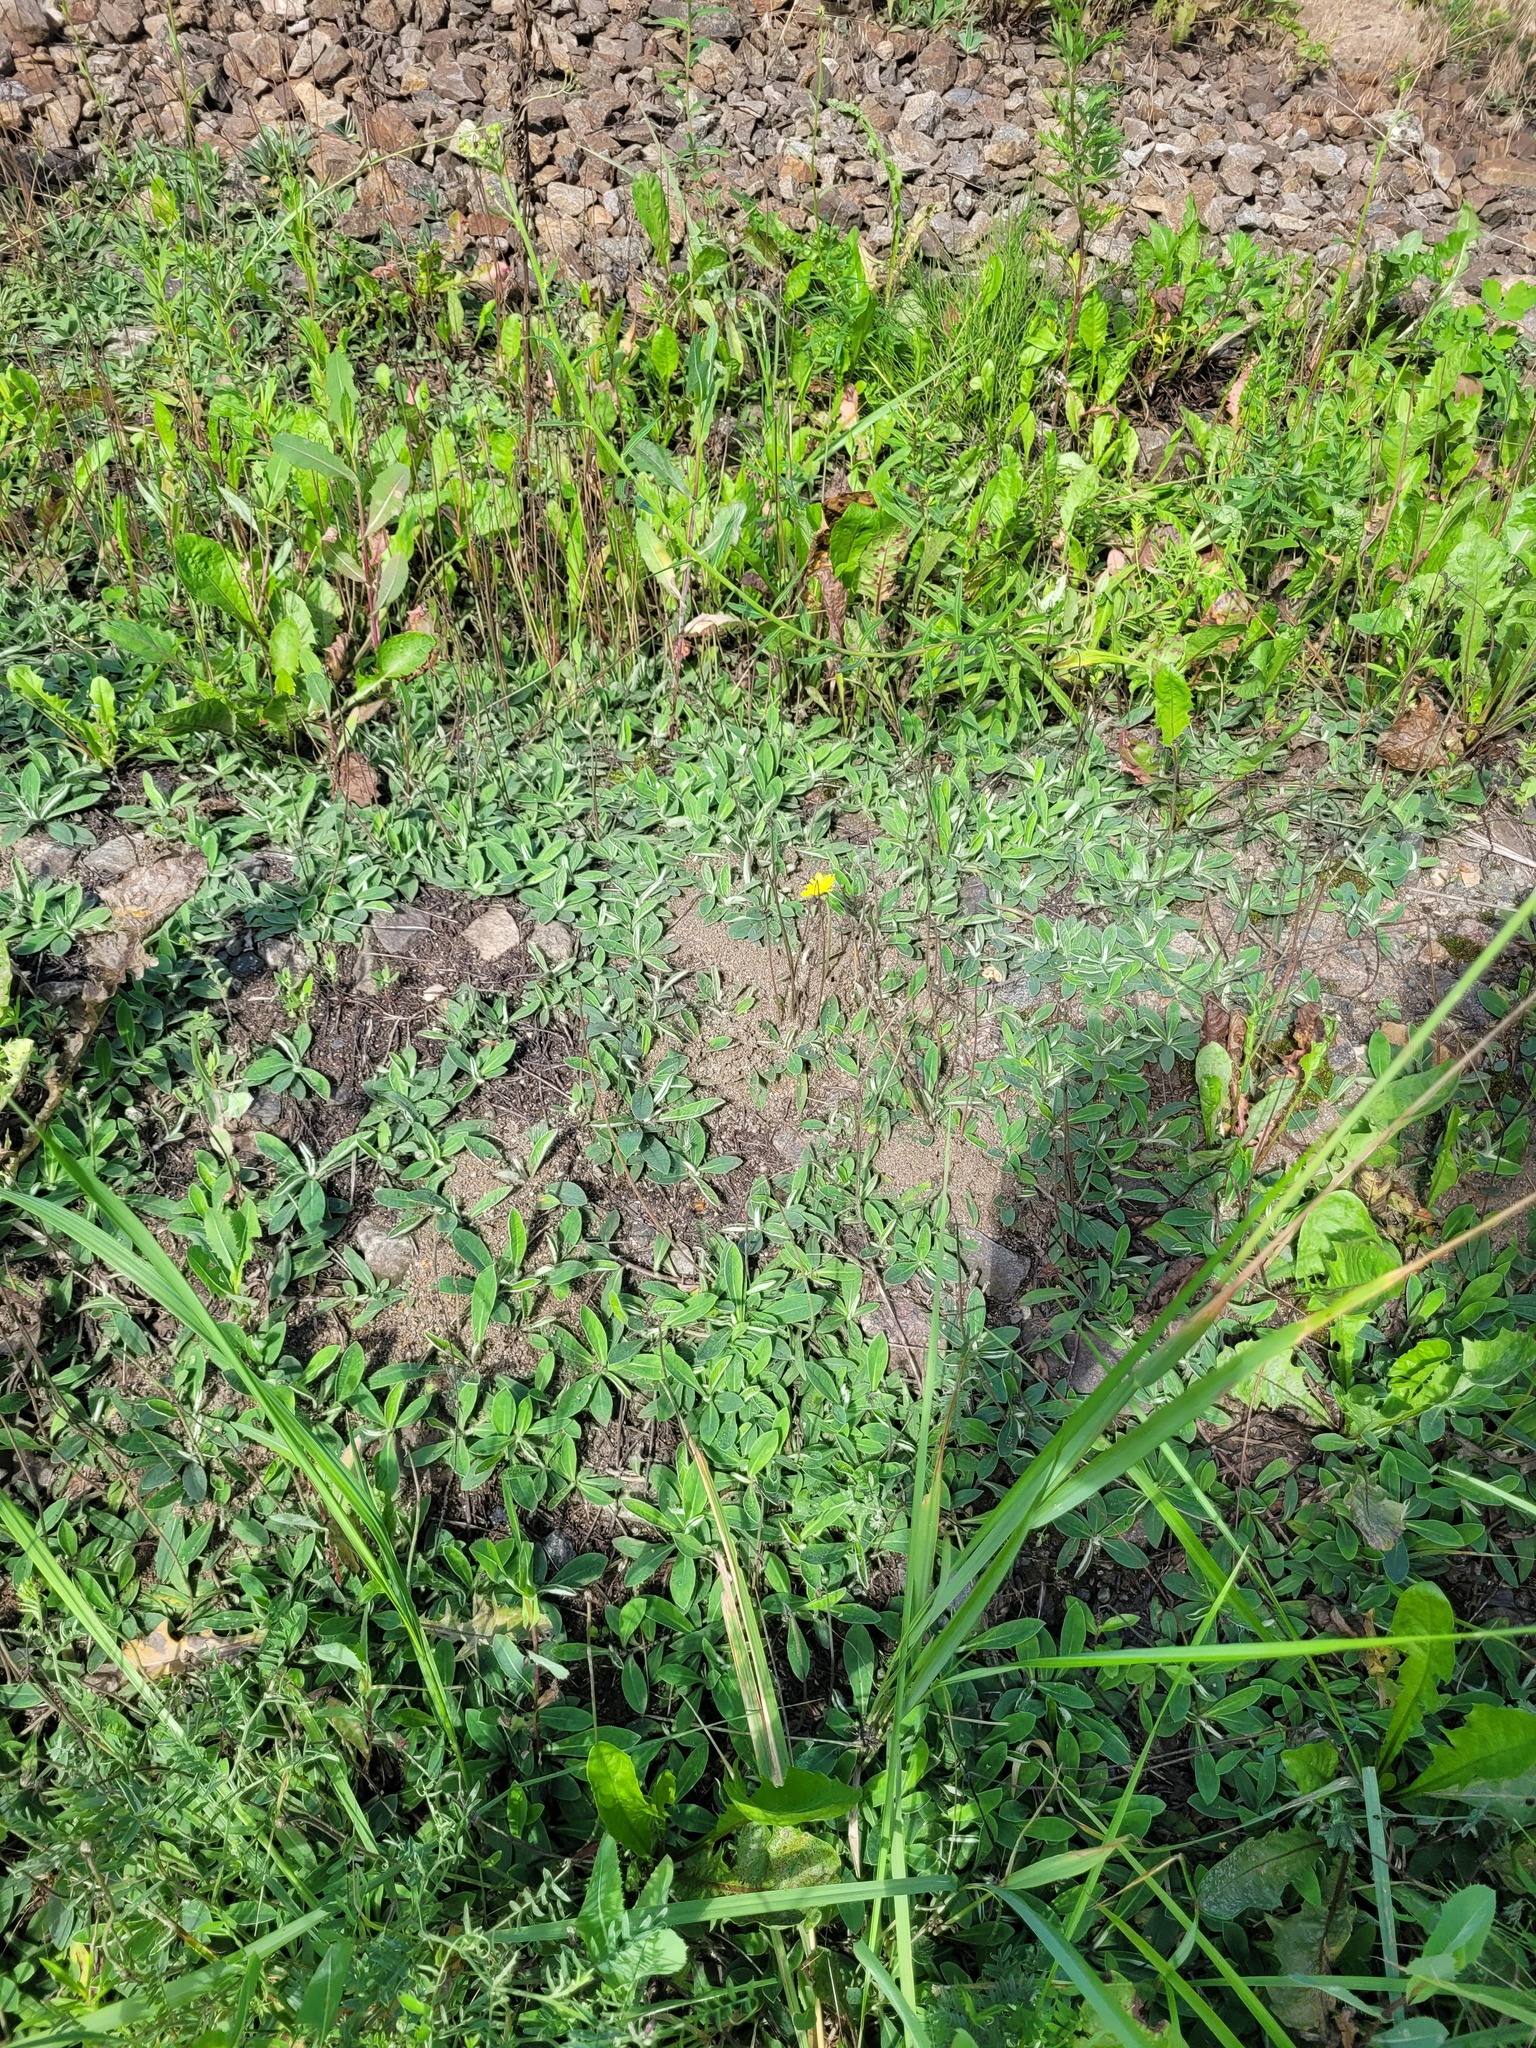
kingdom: Plantae
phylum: Tracheophyta
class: Magnoliopsida
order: Asterales
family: Asteraceae
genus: Pilosella
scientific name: Pilosella officinarum
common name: Mouse-ear hawkweed
